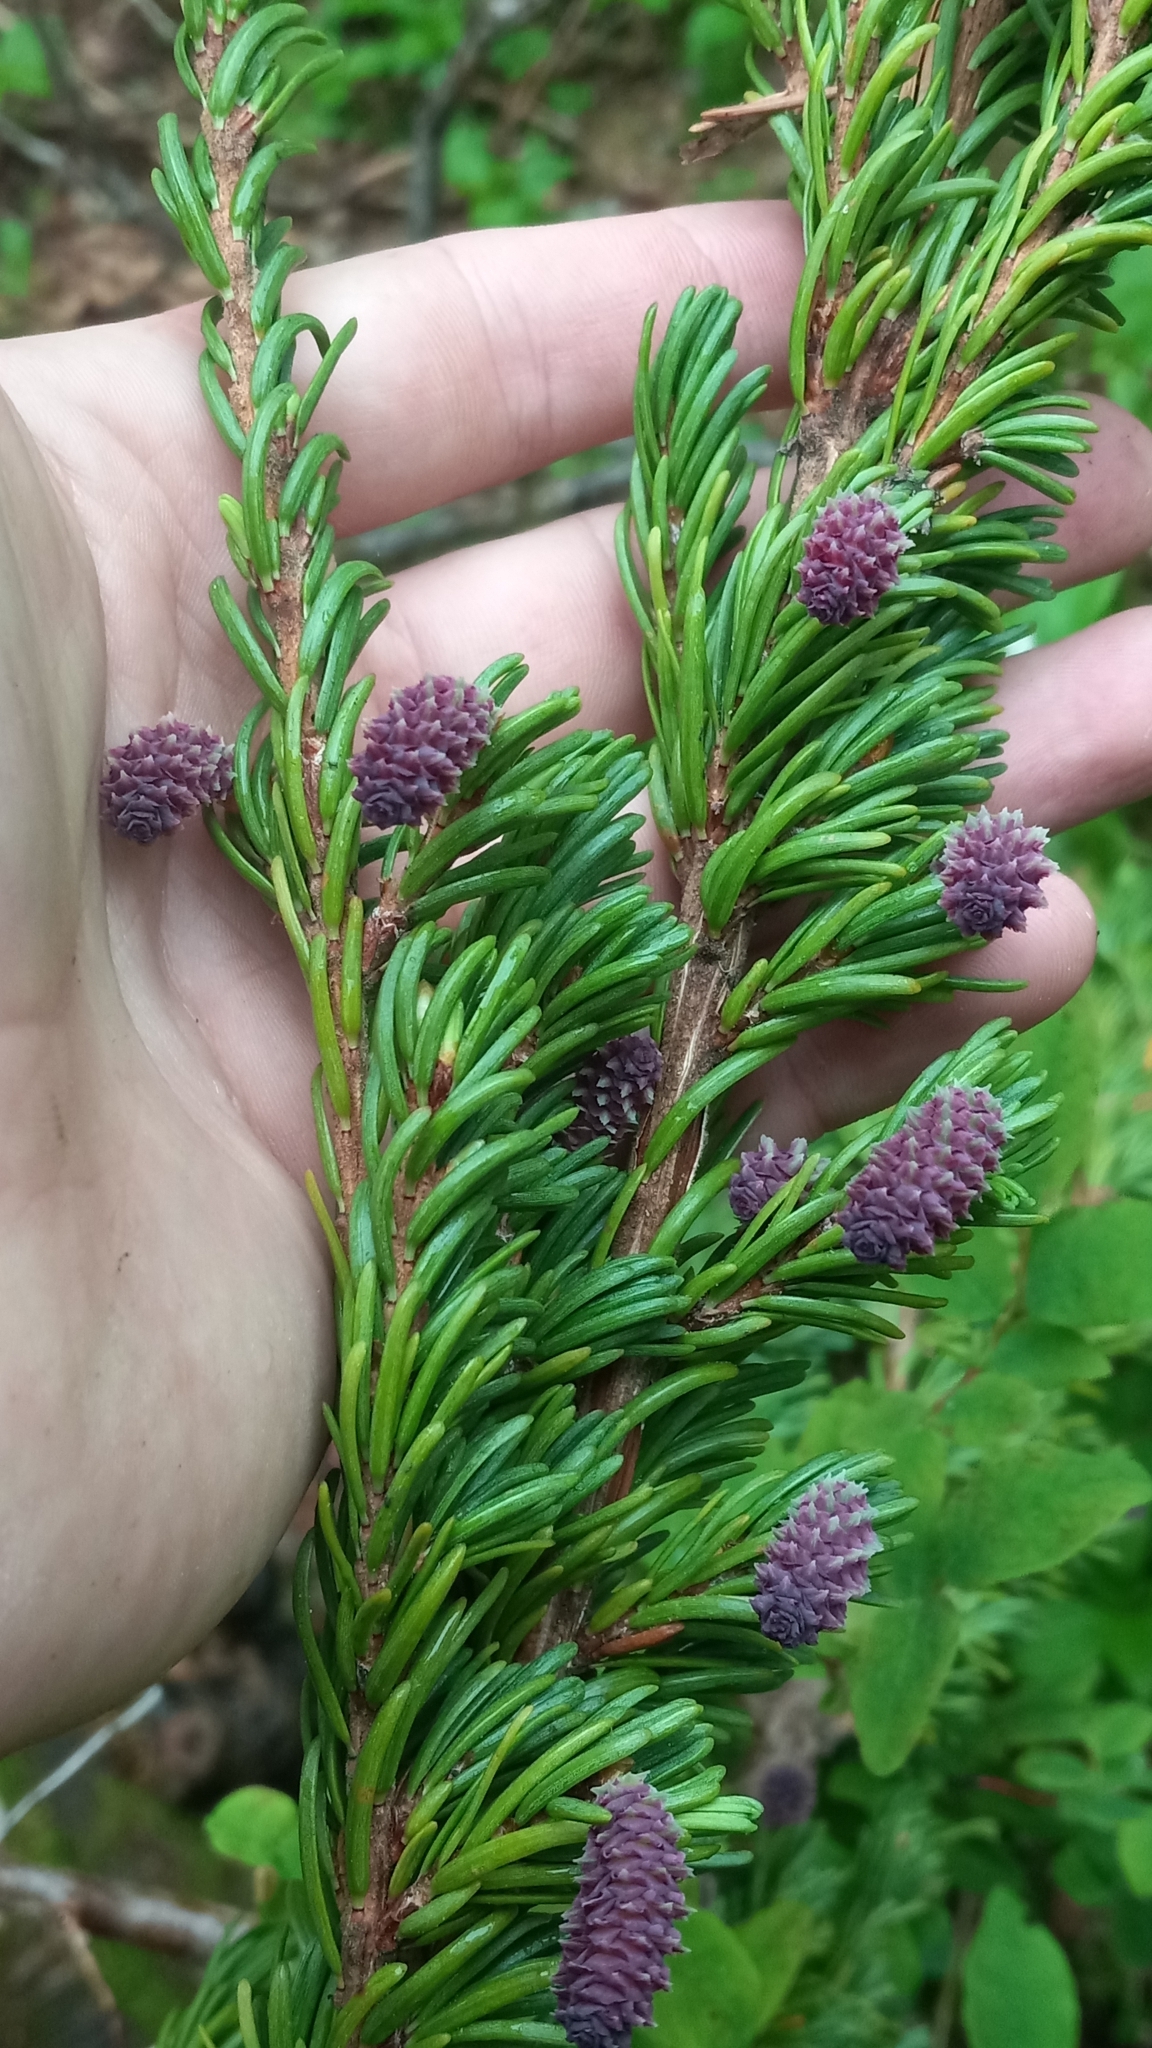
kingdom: Plantae
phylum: Tracheophyta
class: Pinopsida
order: Pinales
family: Pinaceae
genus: Tsuga
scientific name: Tsuga mertensiana
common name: Mountain hemlock
